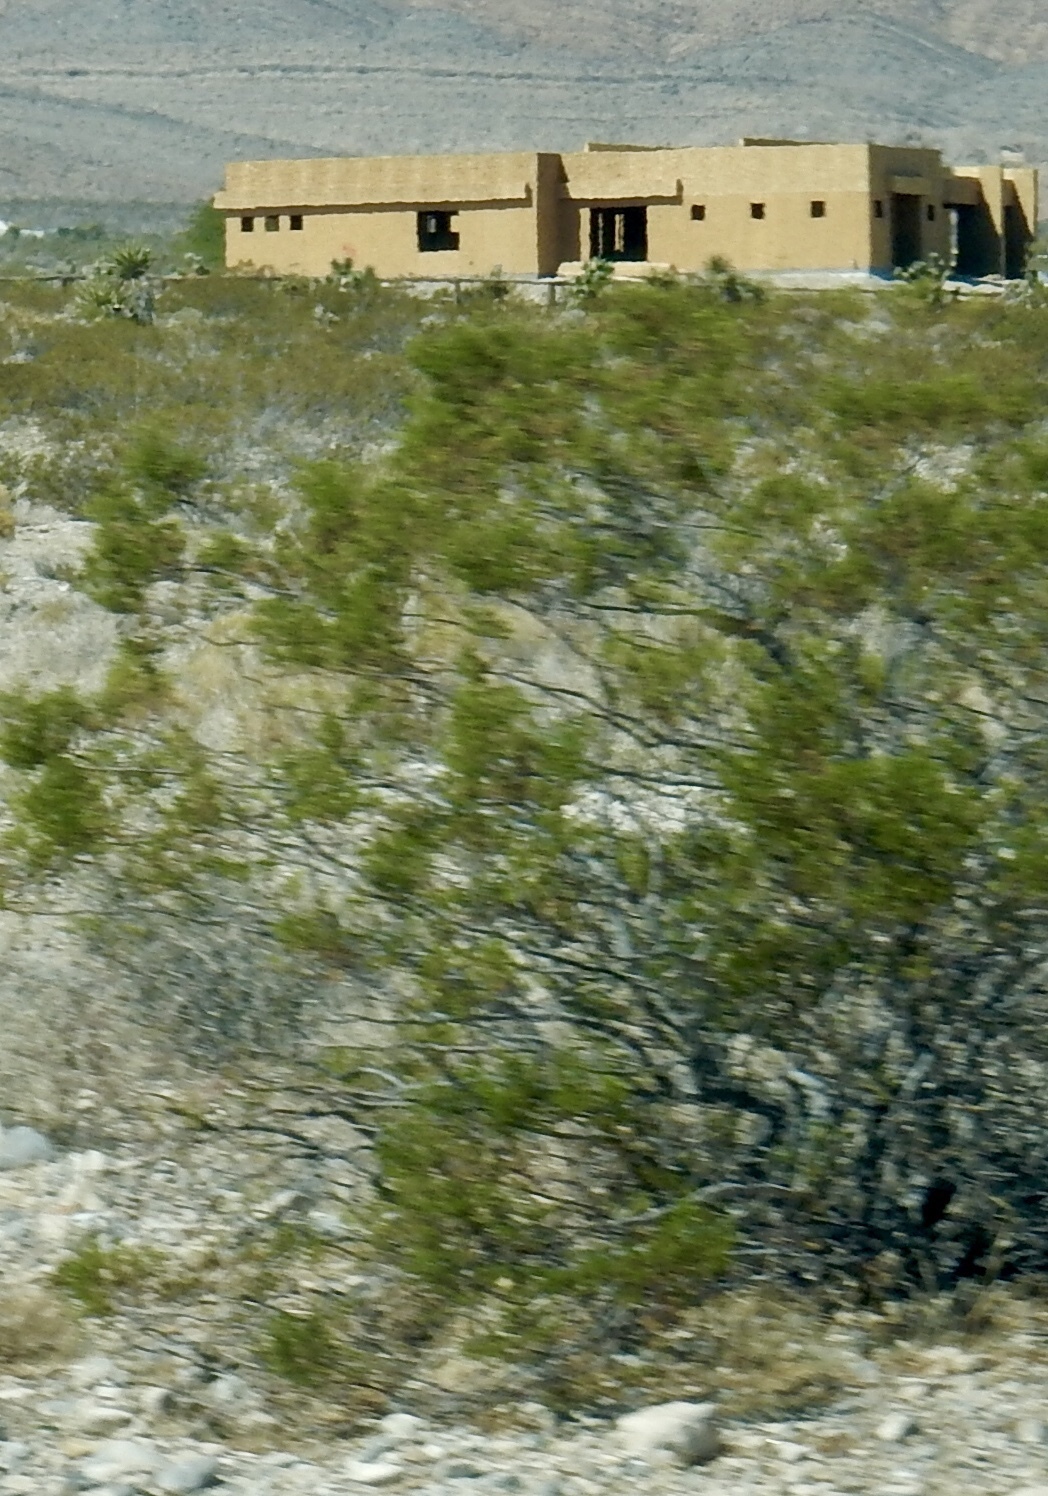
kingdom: Plantae
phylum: Tracheophyta
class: Magnoliopsida
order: Zygophyllales
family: Zygophyllaceae
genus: Larrea
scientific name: Larrea tridentata
